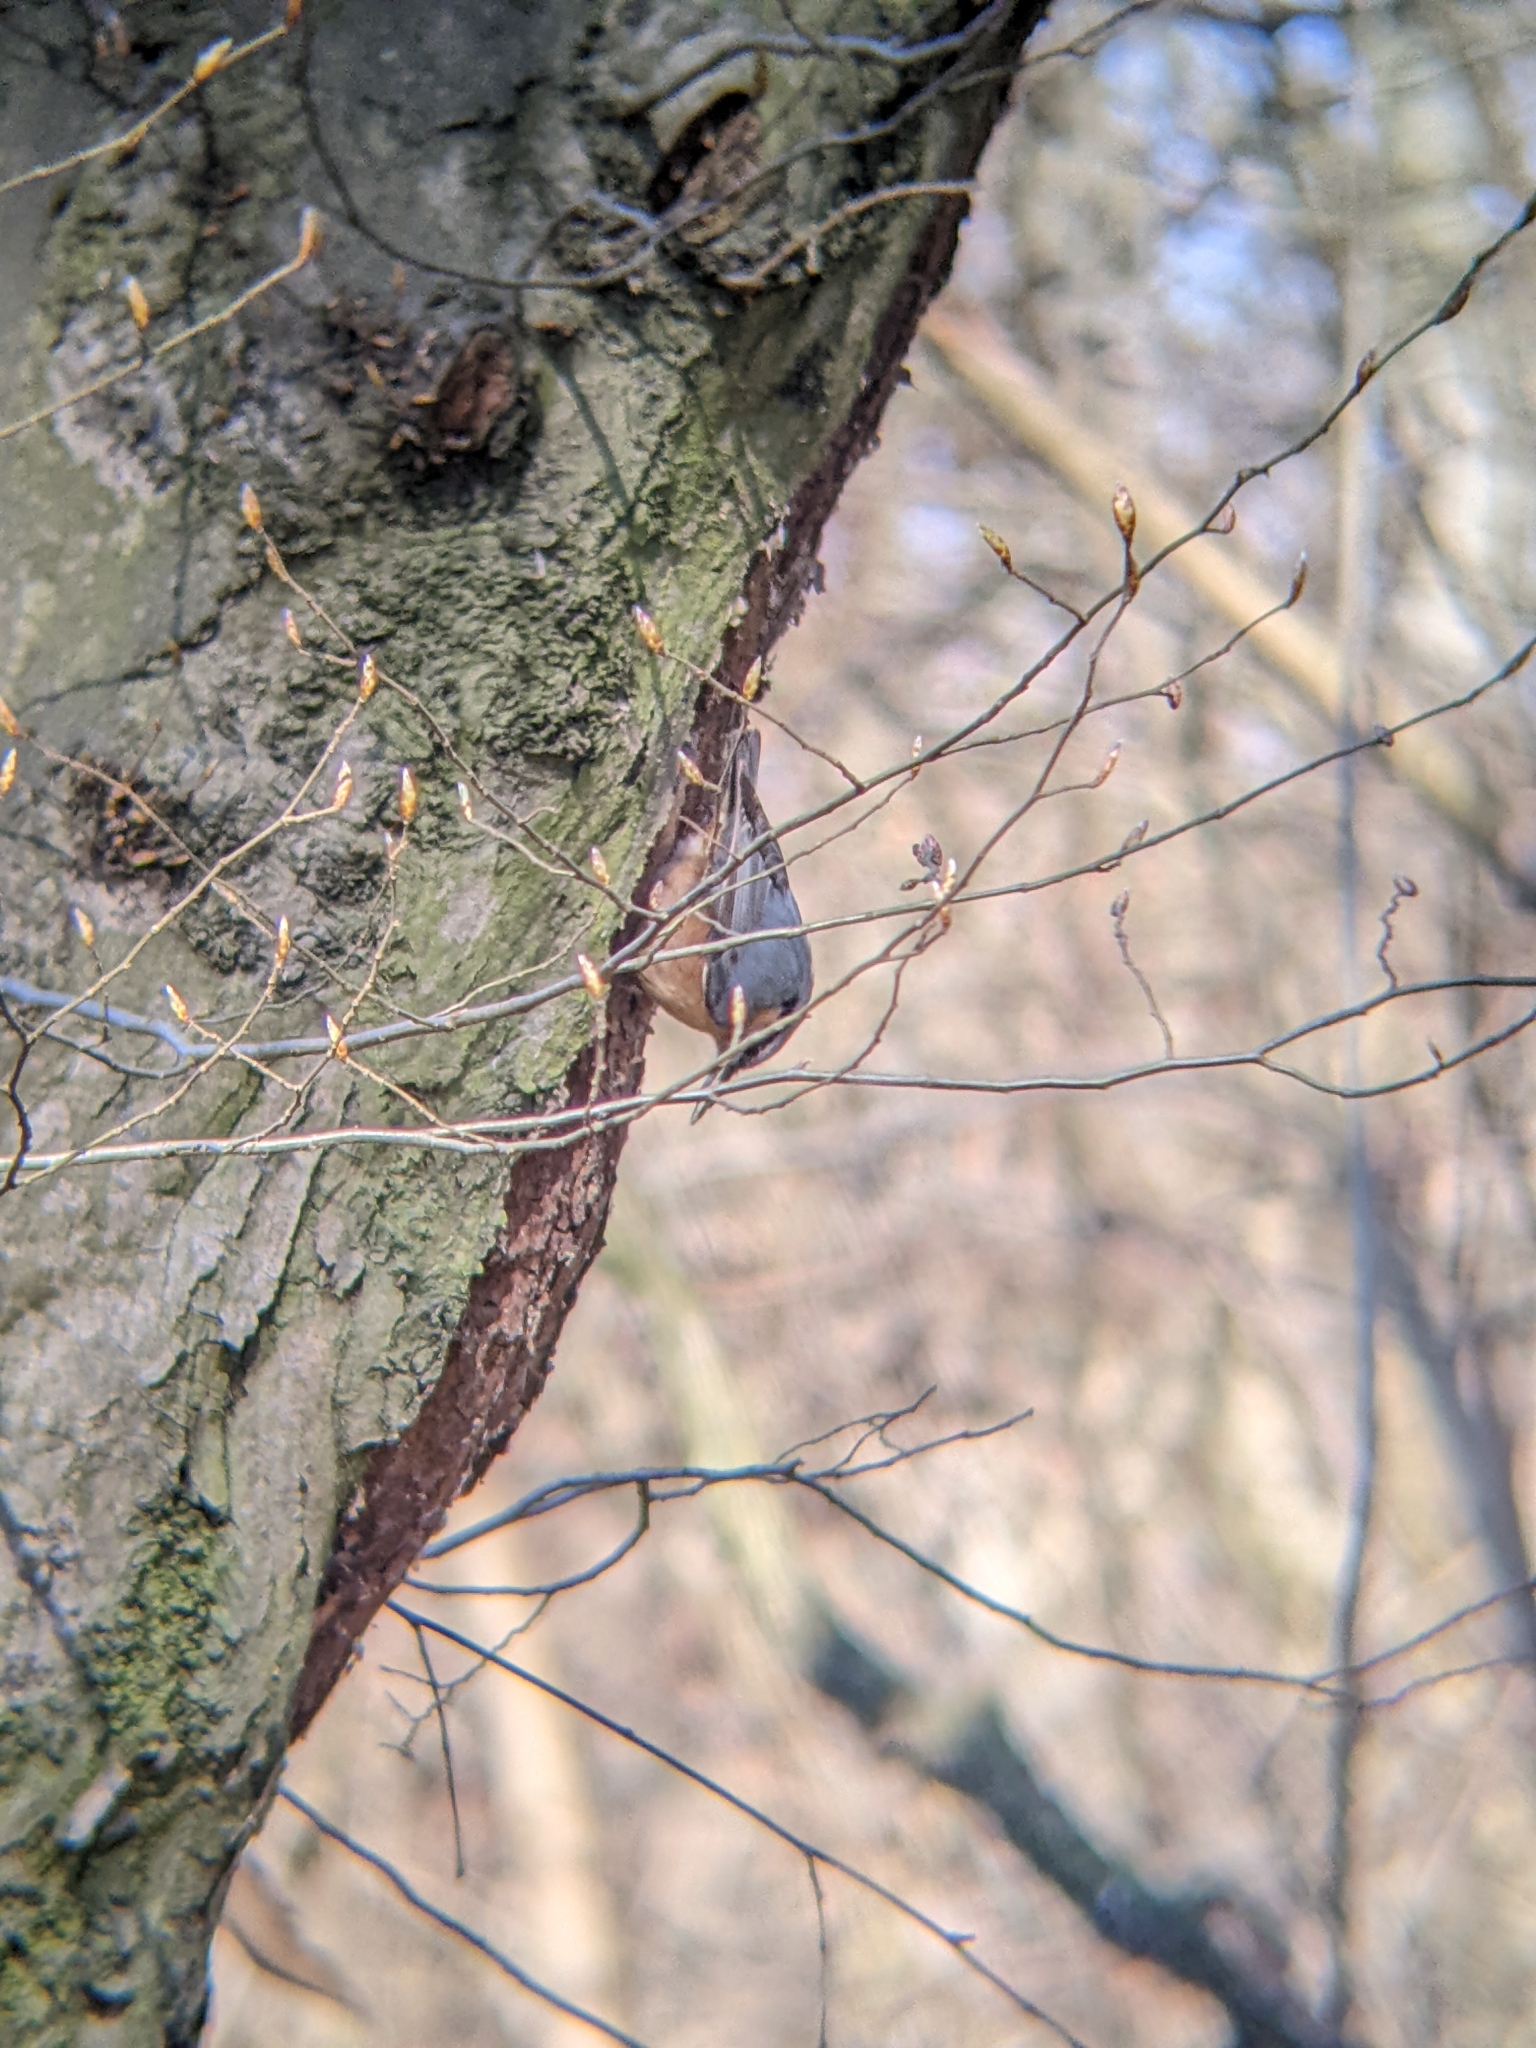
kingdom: Animalia
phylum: Chordata
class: Aves
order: Passeriformes
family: Sittidae
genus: Sitta
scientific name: Sitta europaea
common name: Eurasian nuthatch
